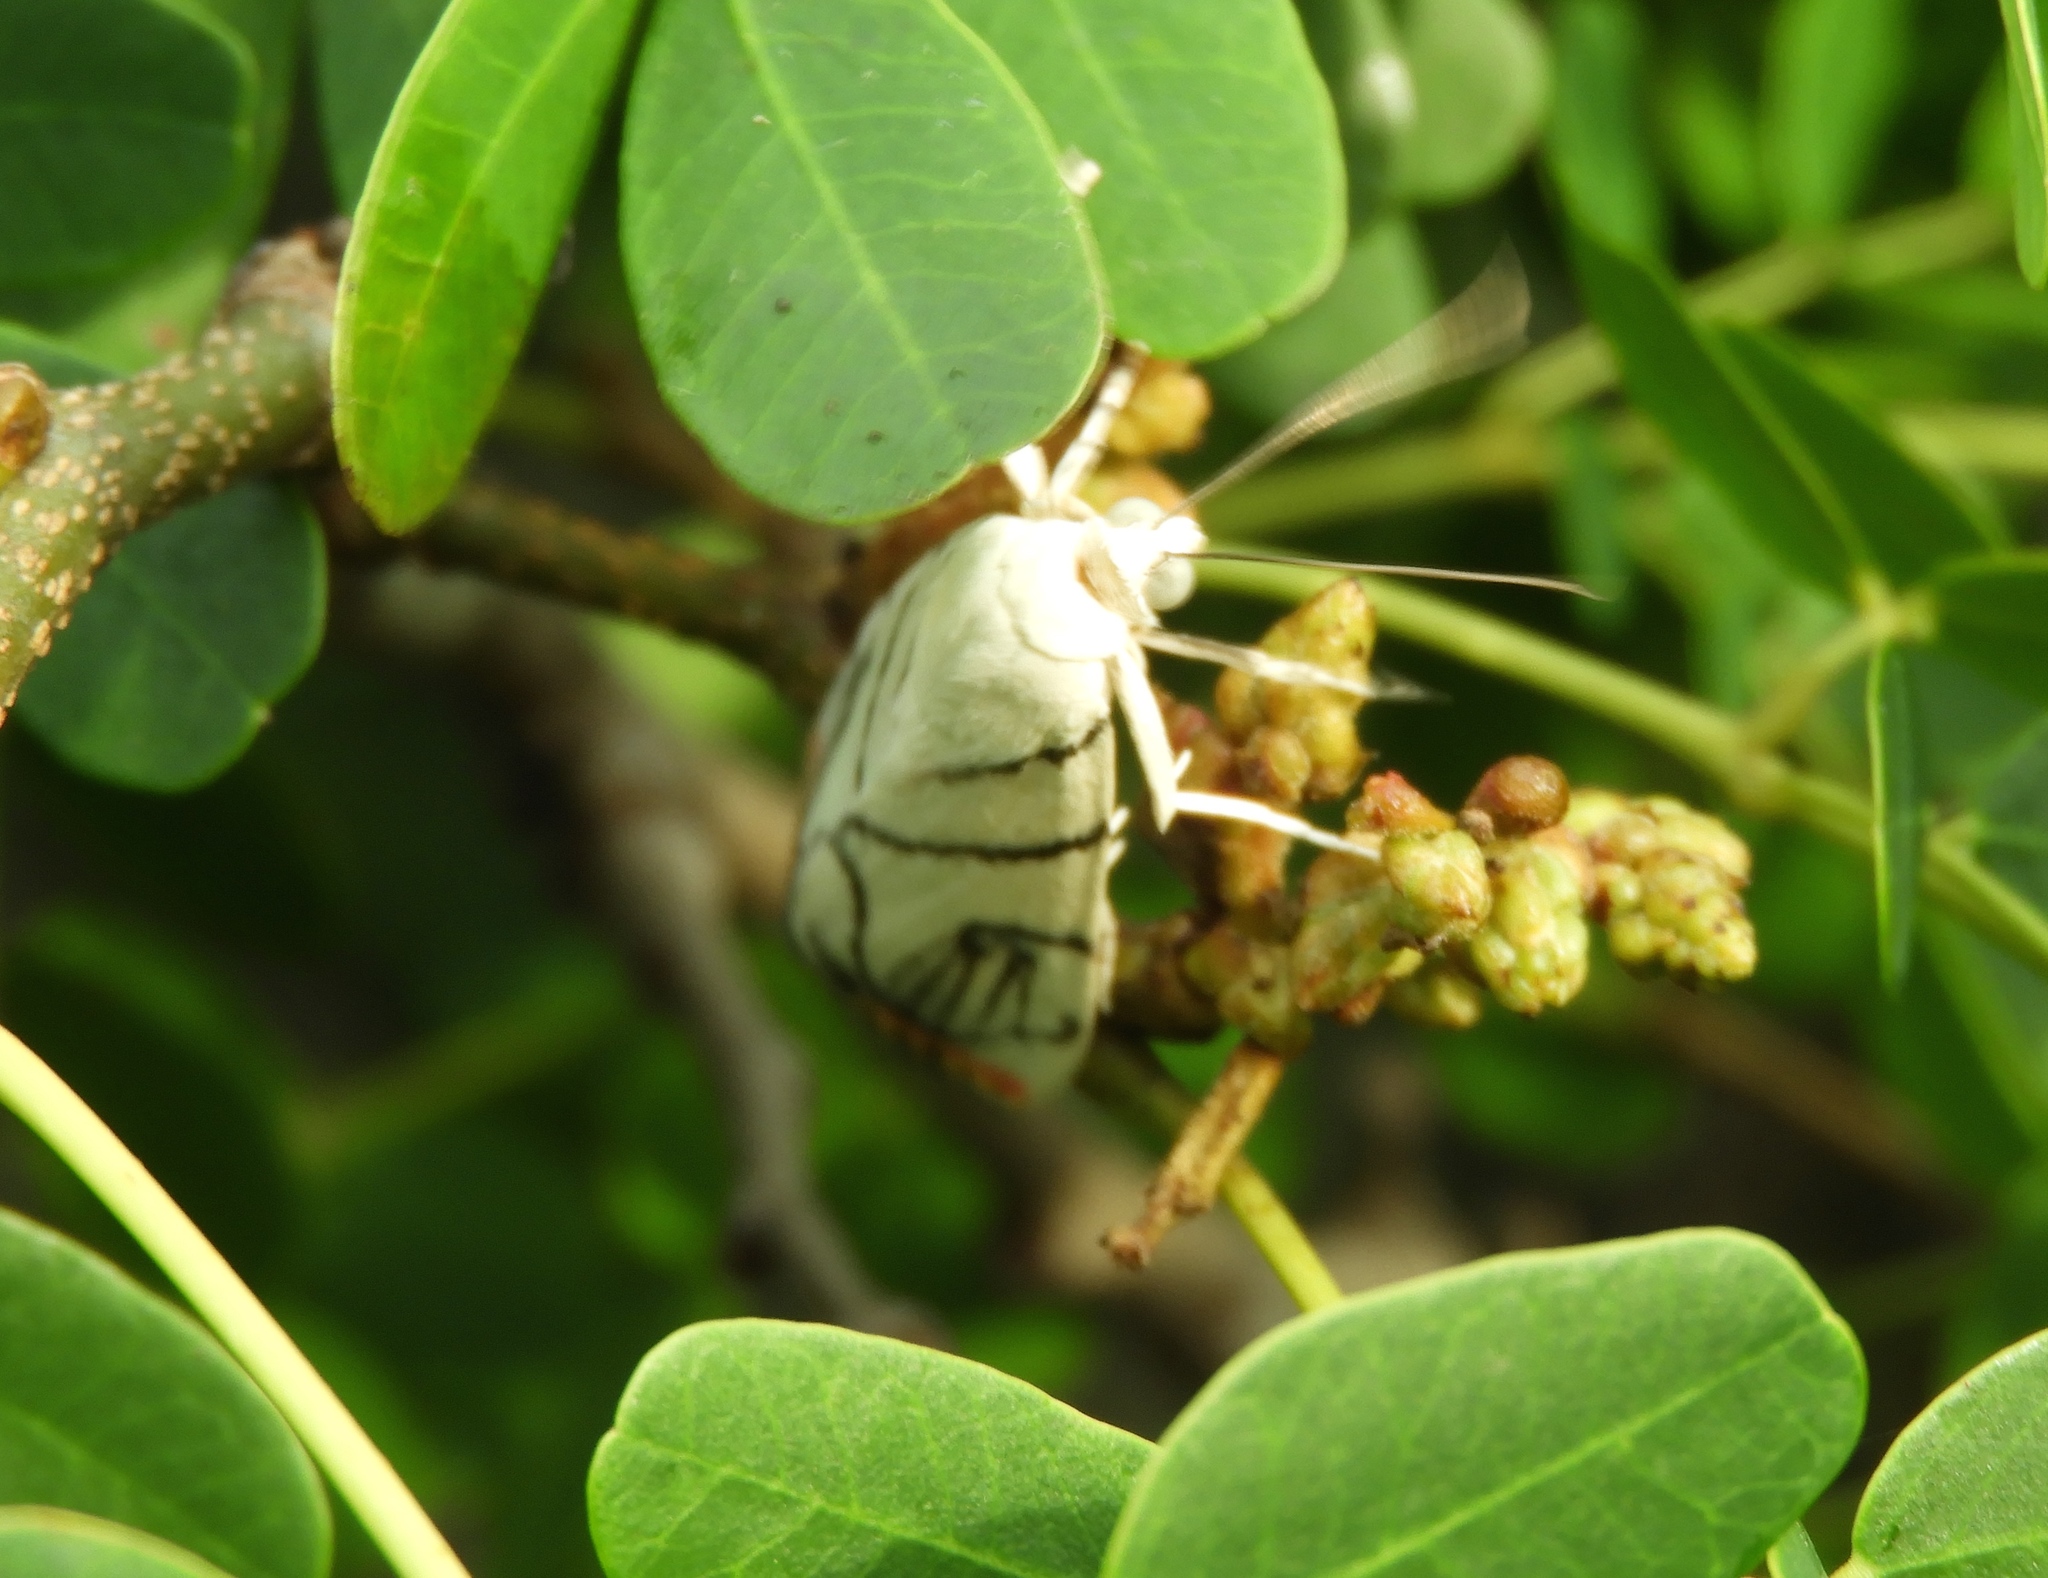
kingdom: Animalia
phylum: Arthropoda
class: Insecta
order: Lepidoptera
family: Crambidae
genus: Dichogama
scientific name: Dichogama gudmanni
